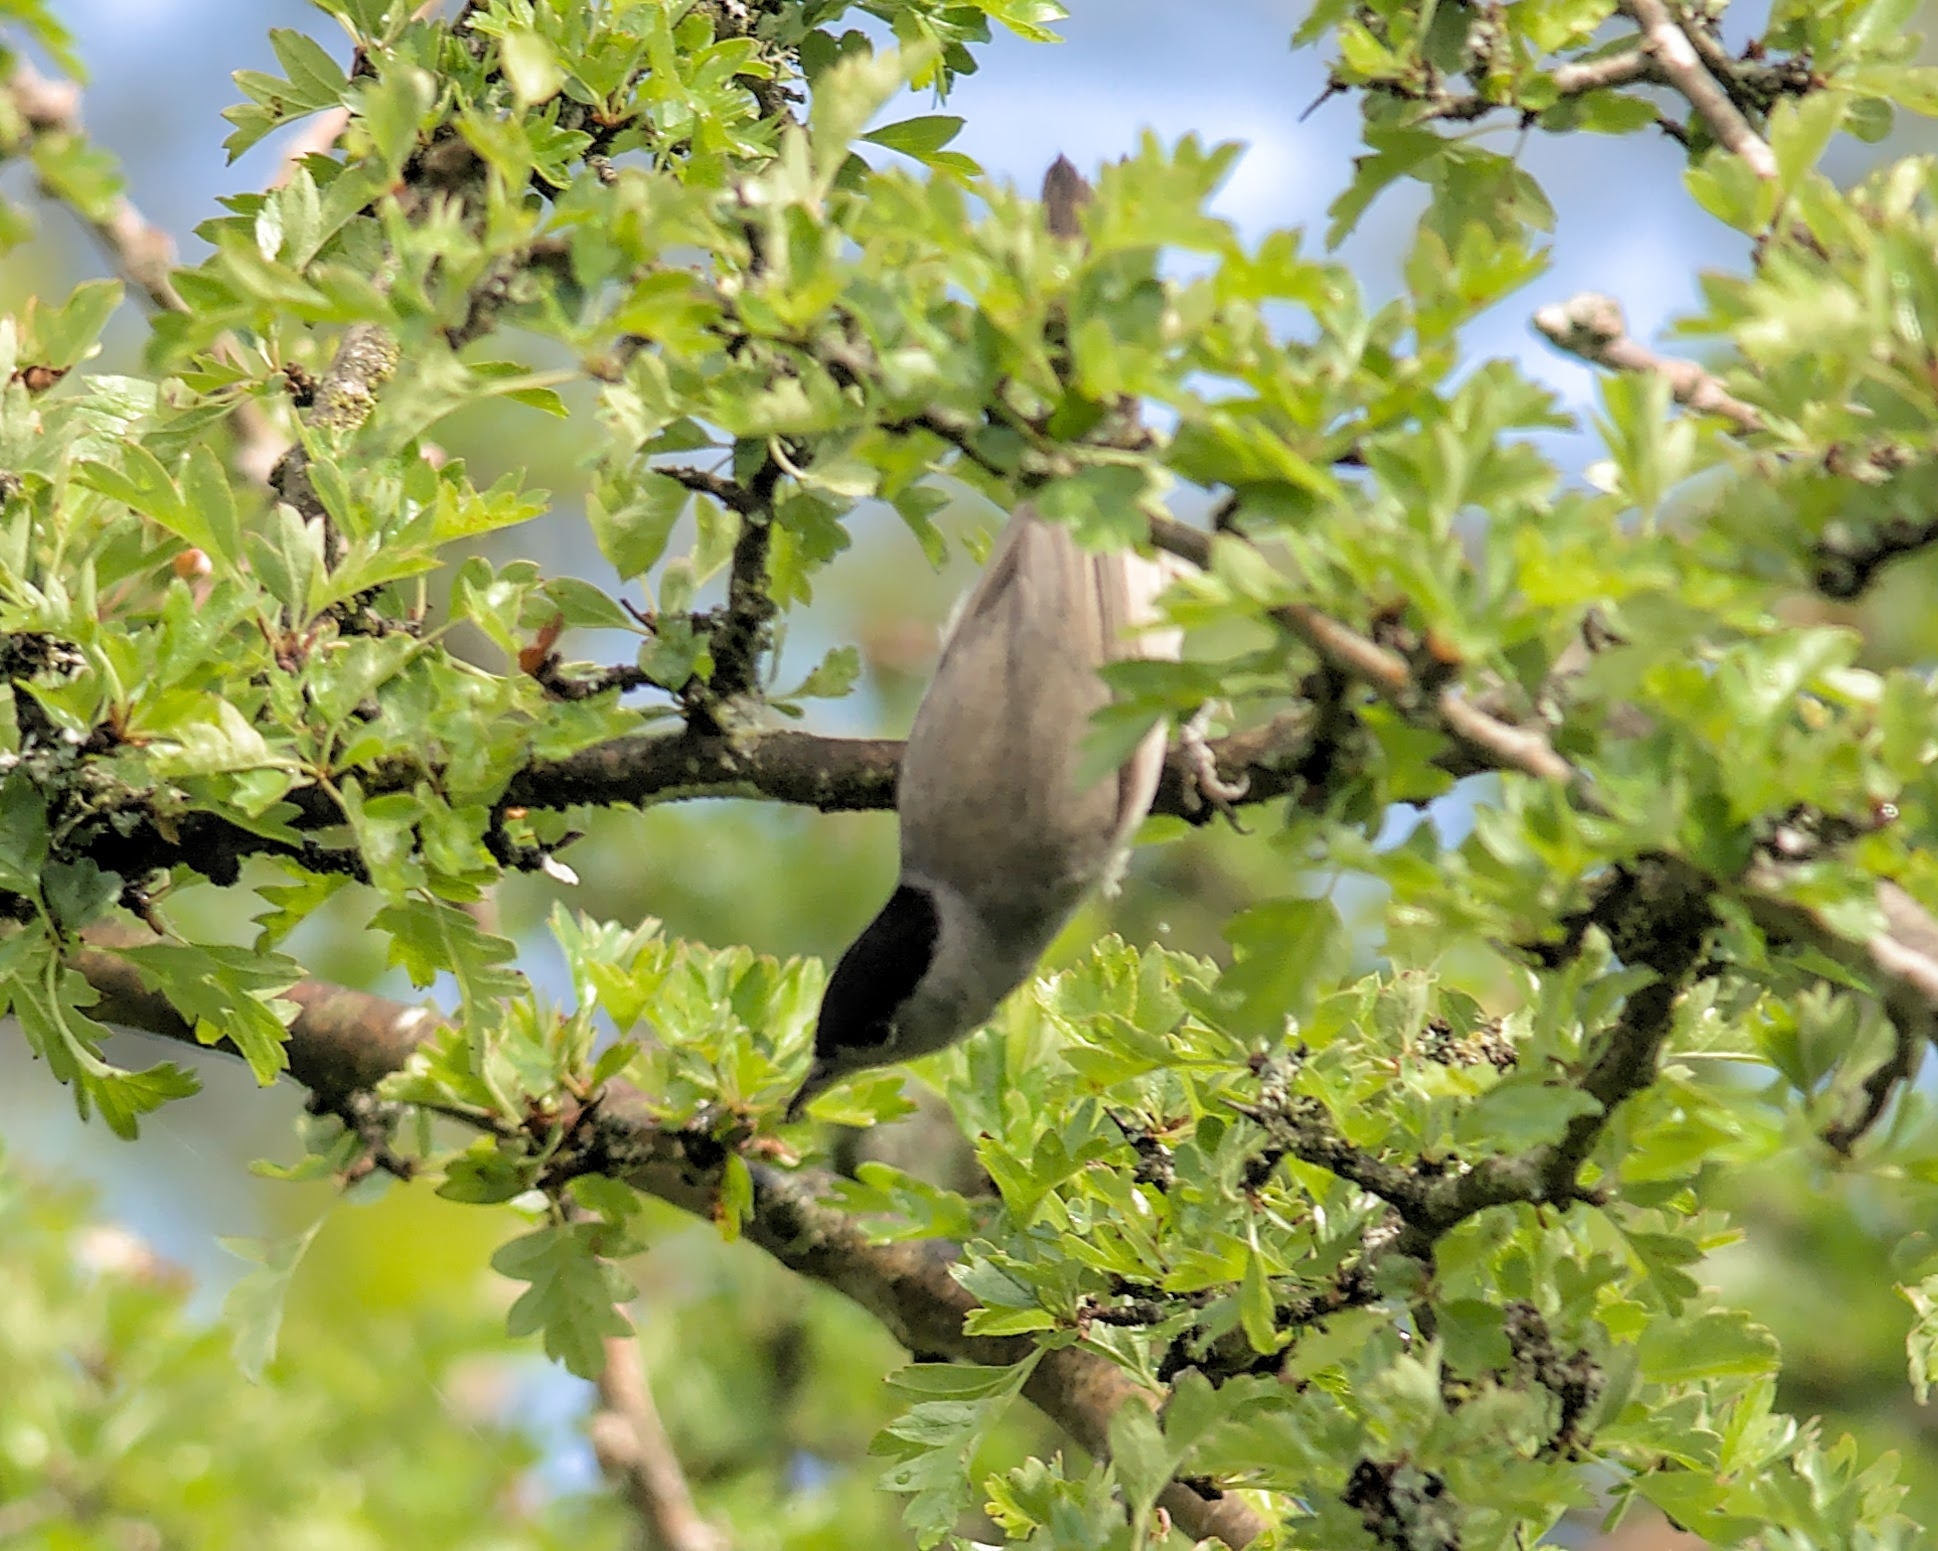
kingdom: Animalia
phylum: Chordata
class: Aves
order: Passeriformes
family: Sylviidae
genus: Sylvia
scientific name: Sylvia atricapilla
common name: Eurasian blackcap
